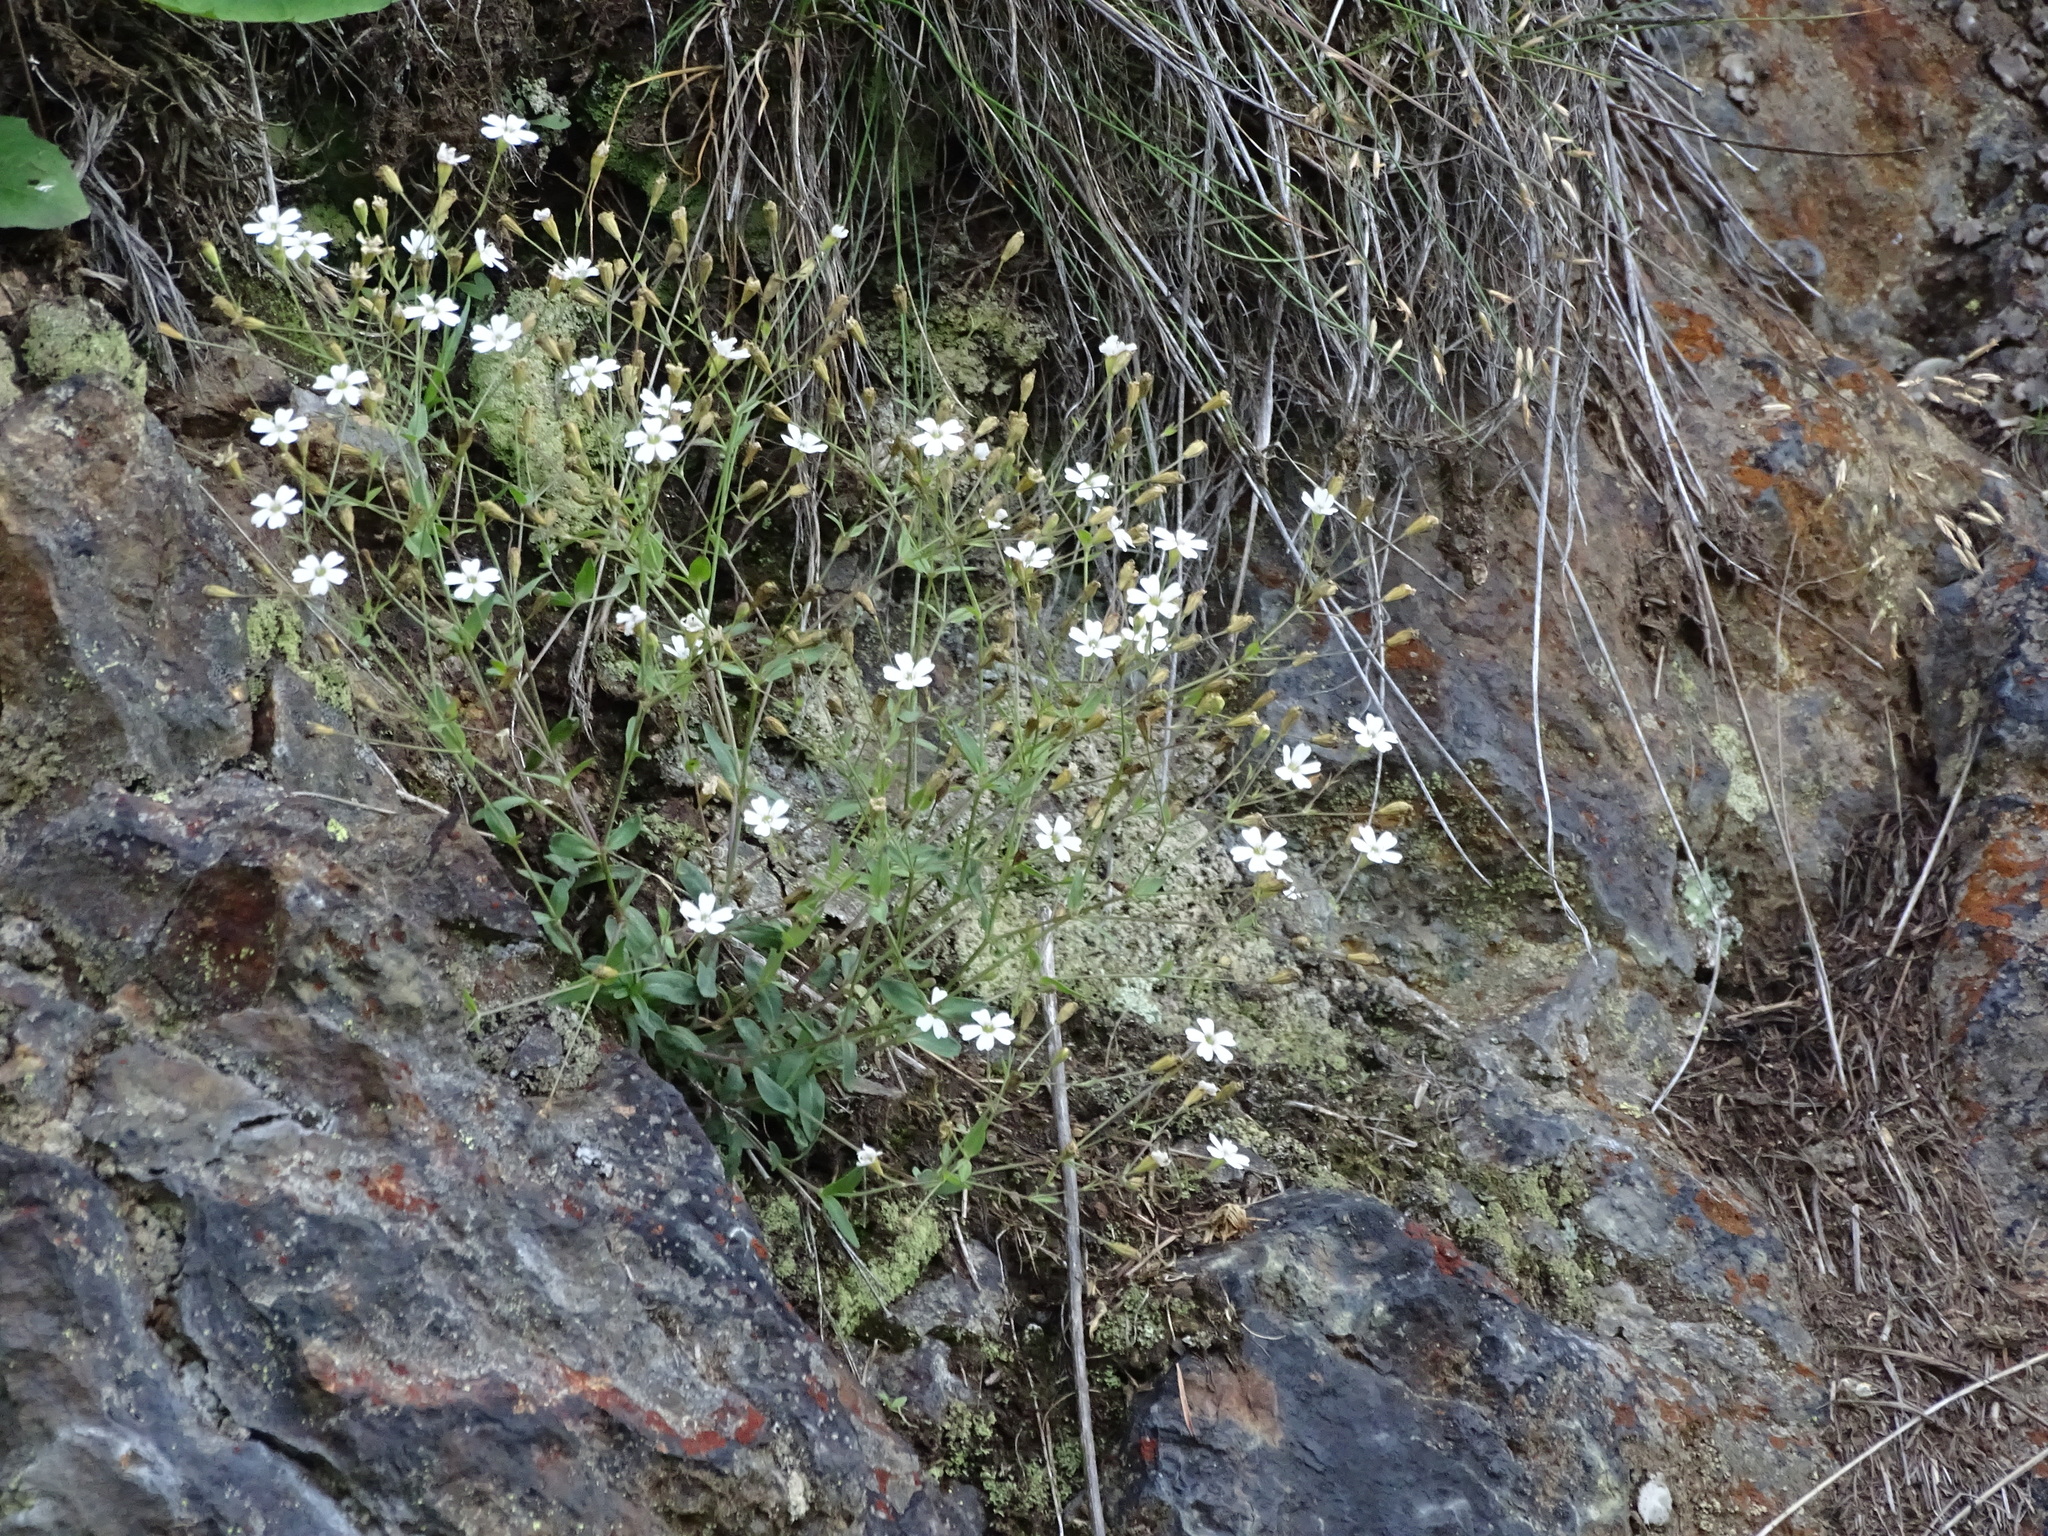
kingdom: Plantae
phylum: Tracheophyta
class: Magnoliopsida
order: Caryophyllales
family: Caryophyllaceae
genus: Atocion
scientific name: Atocion rupestre
